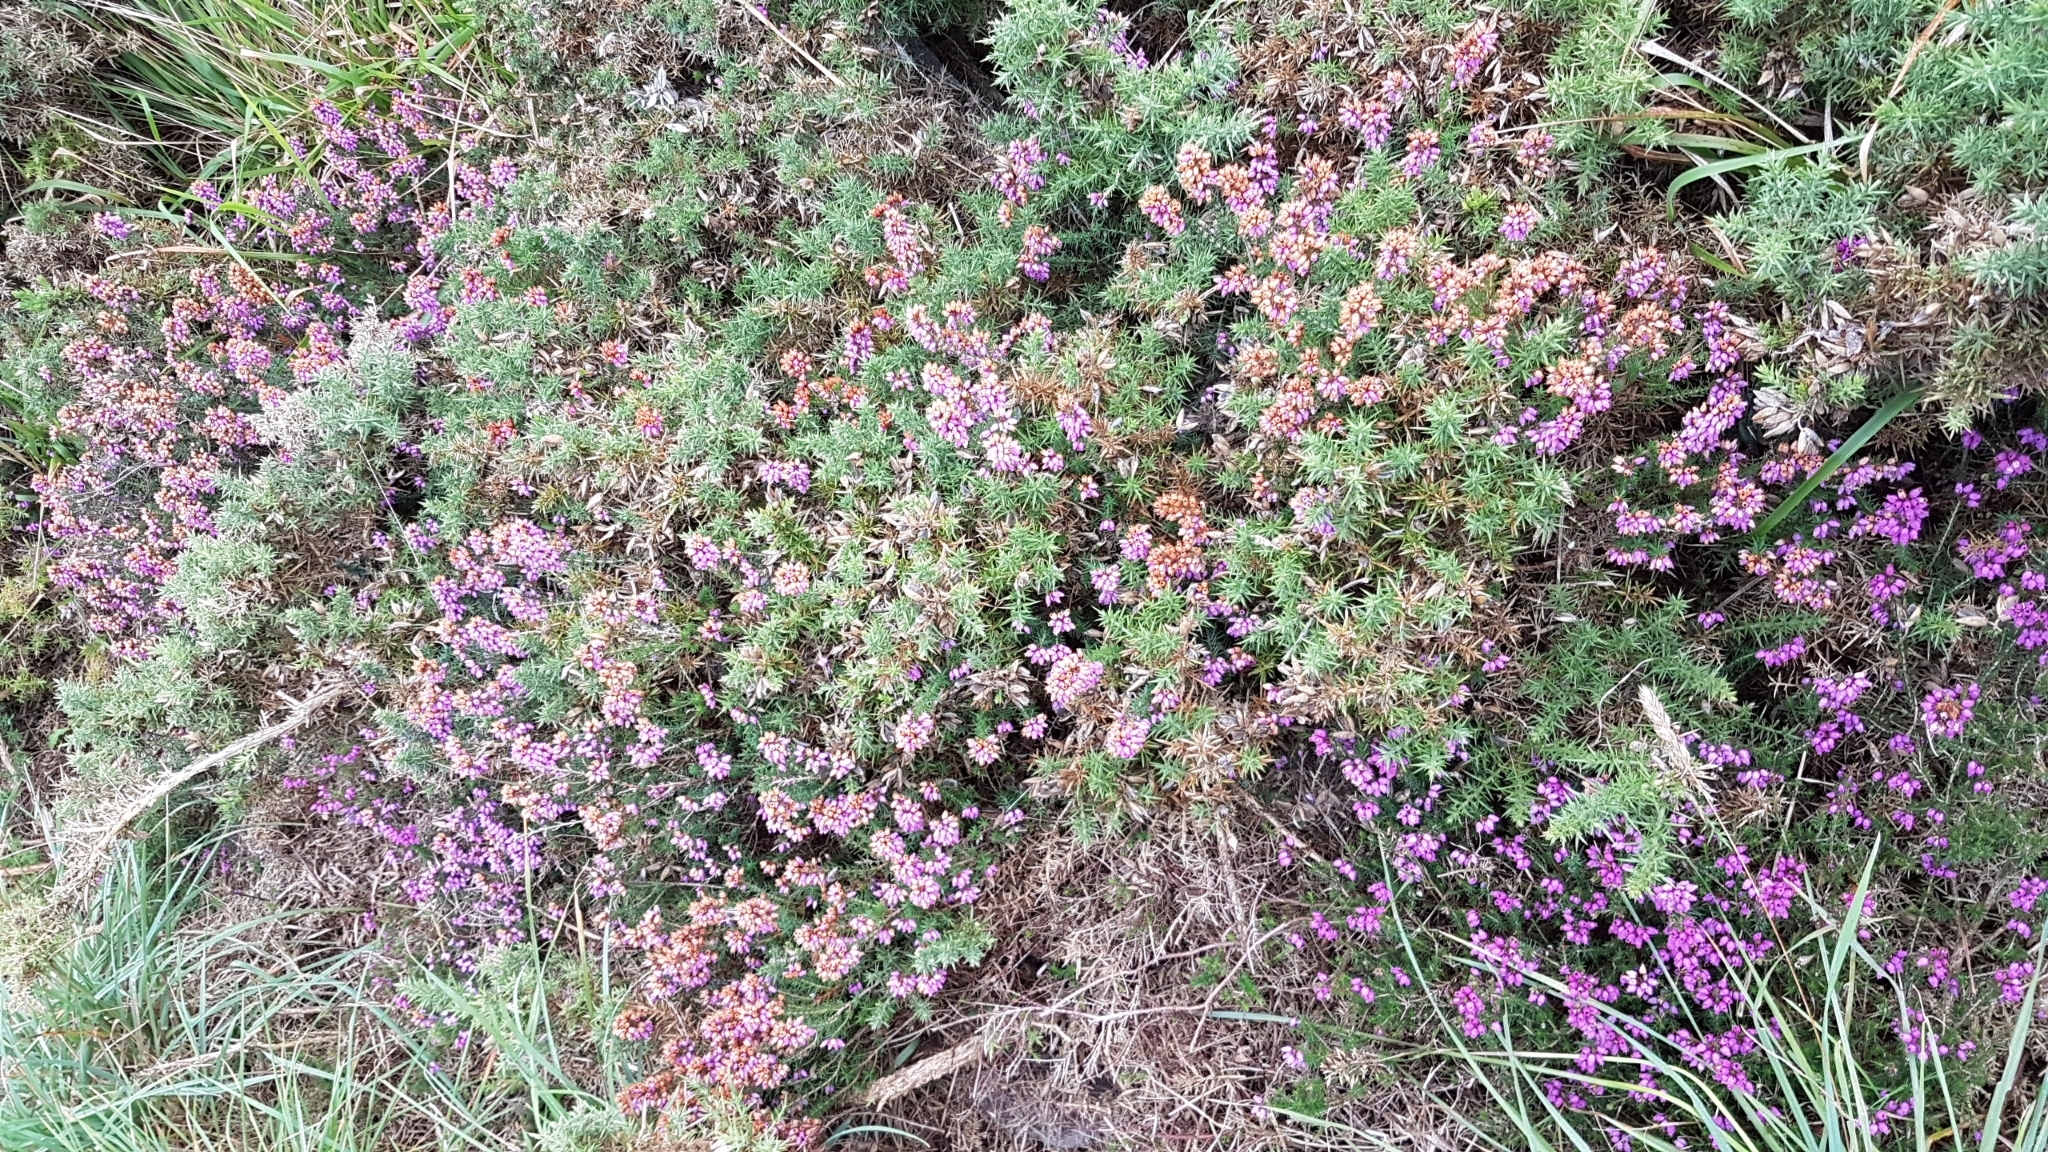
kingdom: Plantae
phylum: Tracheophyta
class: Magnoliopsida
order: Ericales
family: Ericaceae
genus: Erica
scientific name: Erica cinerea
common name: Bell heather
